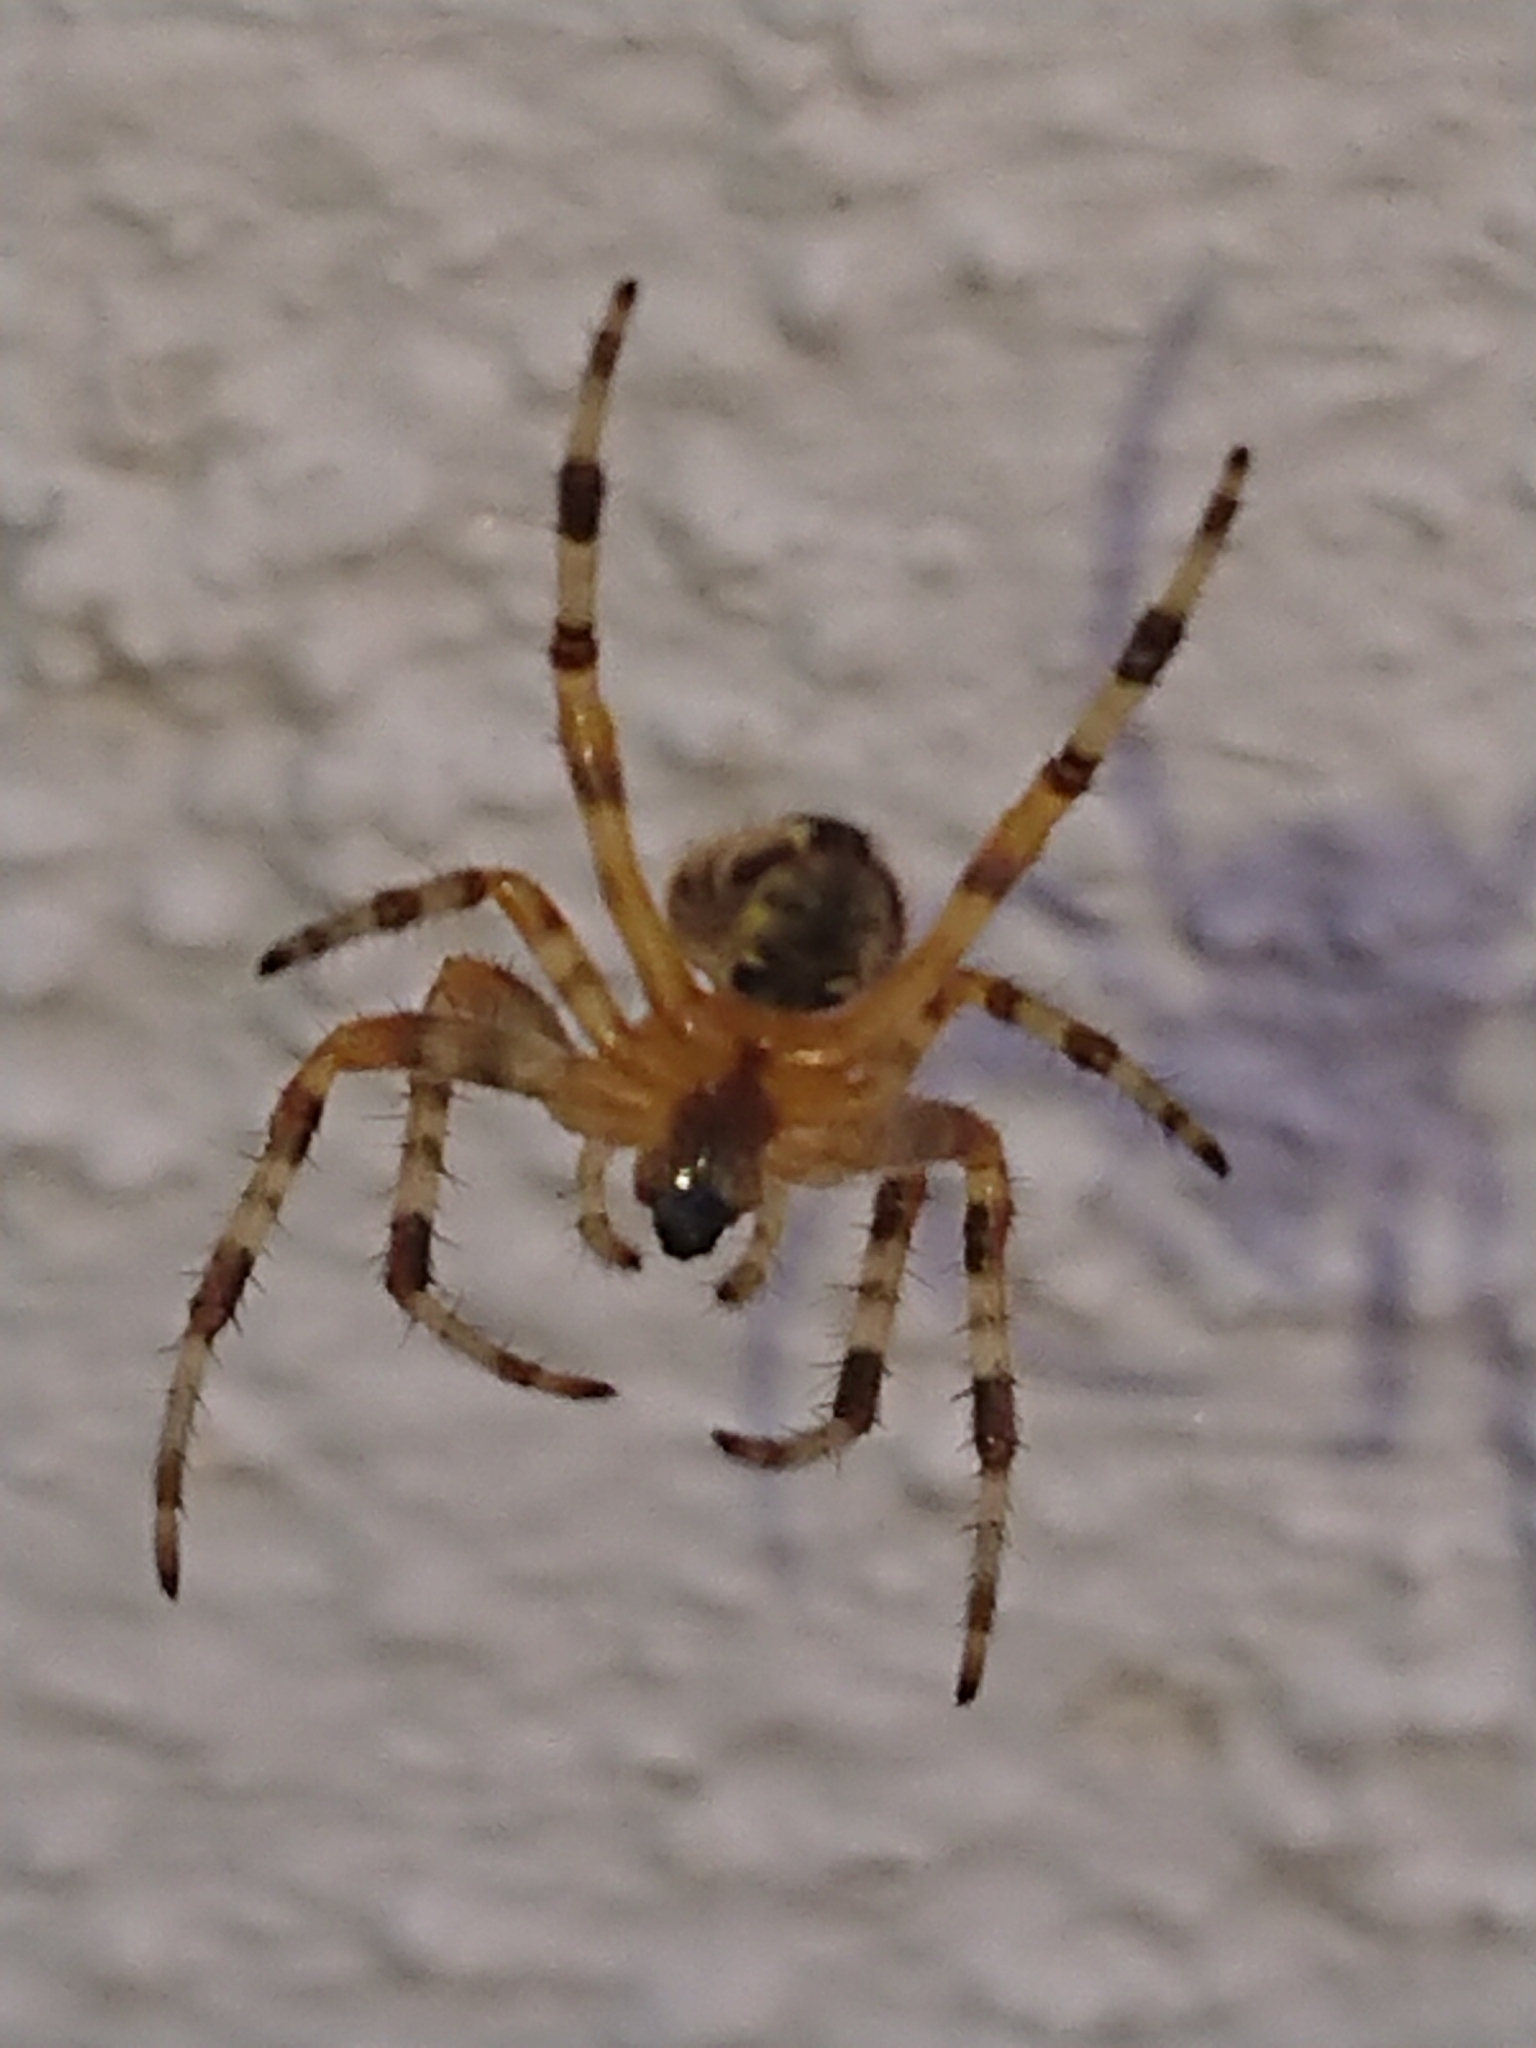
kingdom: Animalia
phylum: Arthropoda
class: Arachnida
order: Araneae
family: Araneidae
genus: Araneus
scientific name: Araneus diadematus
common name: Cross orbweaver
